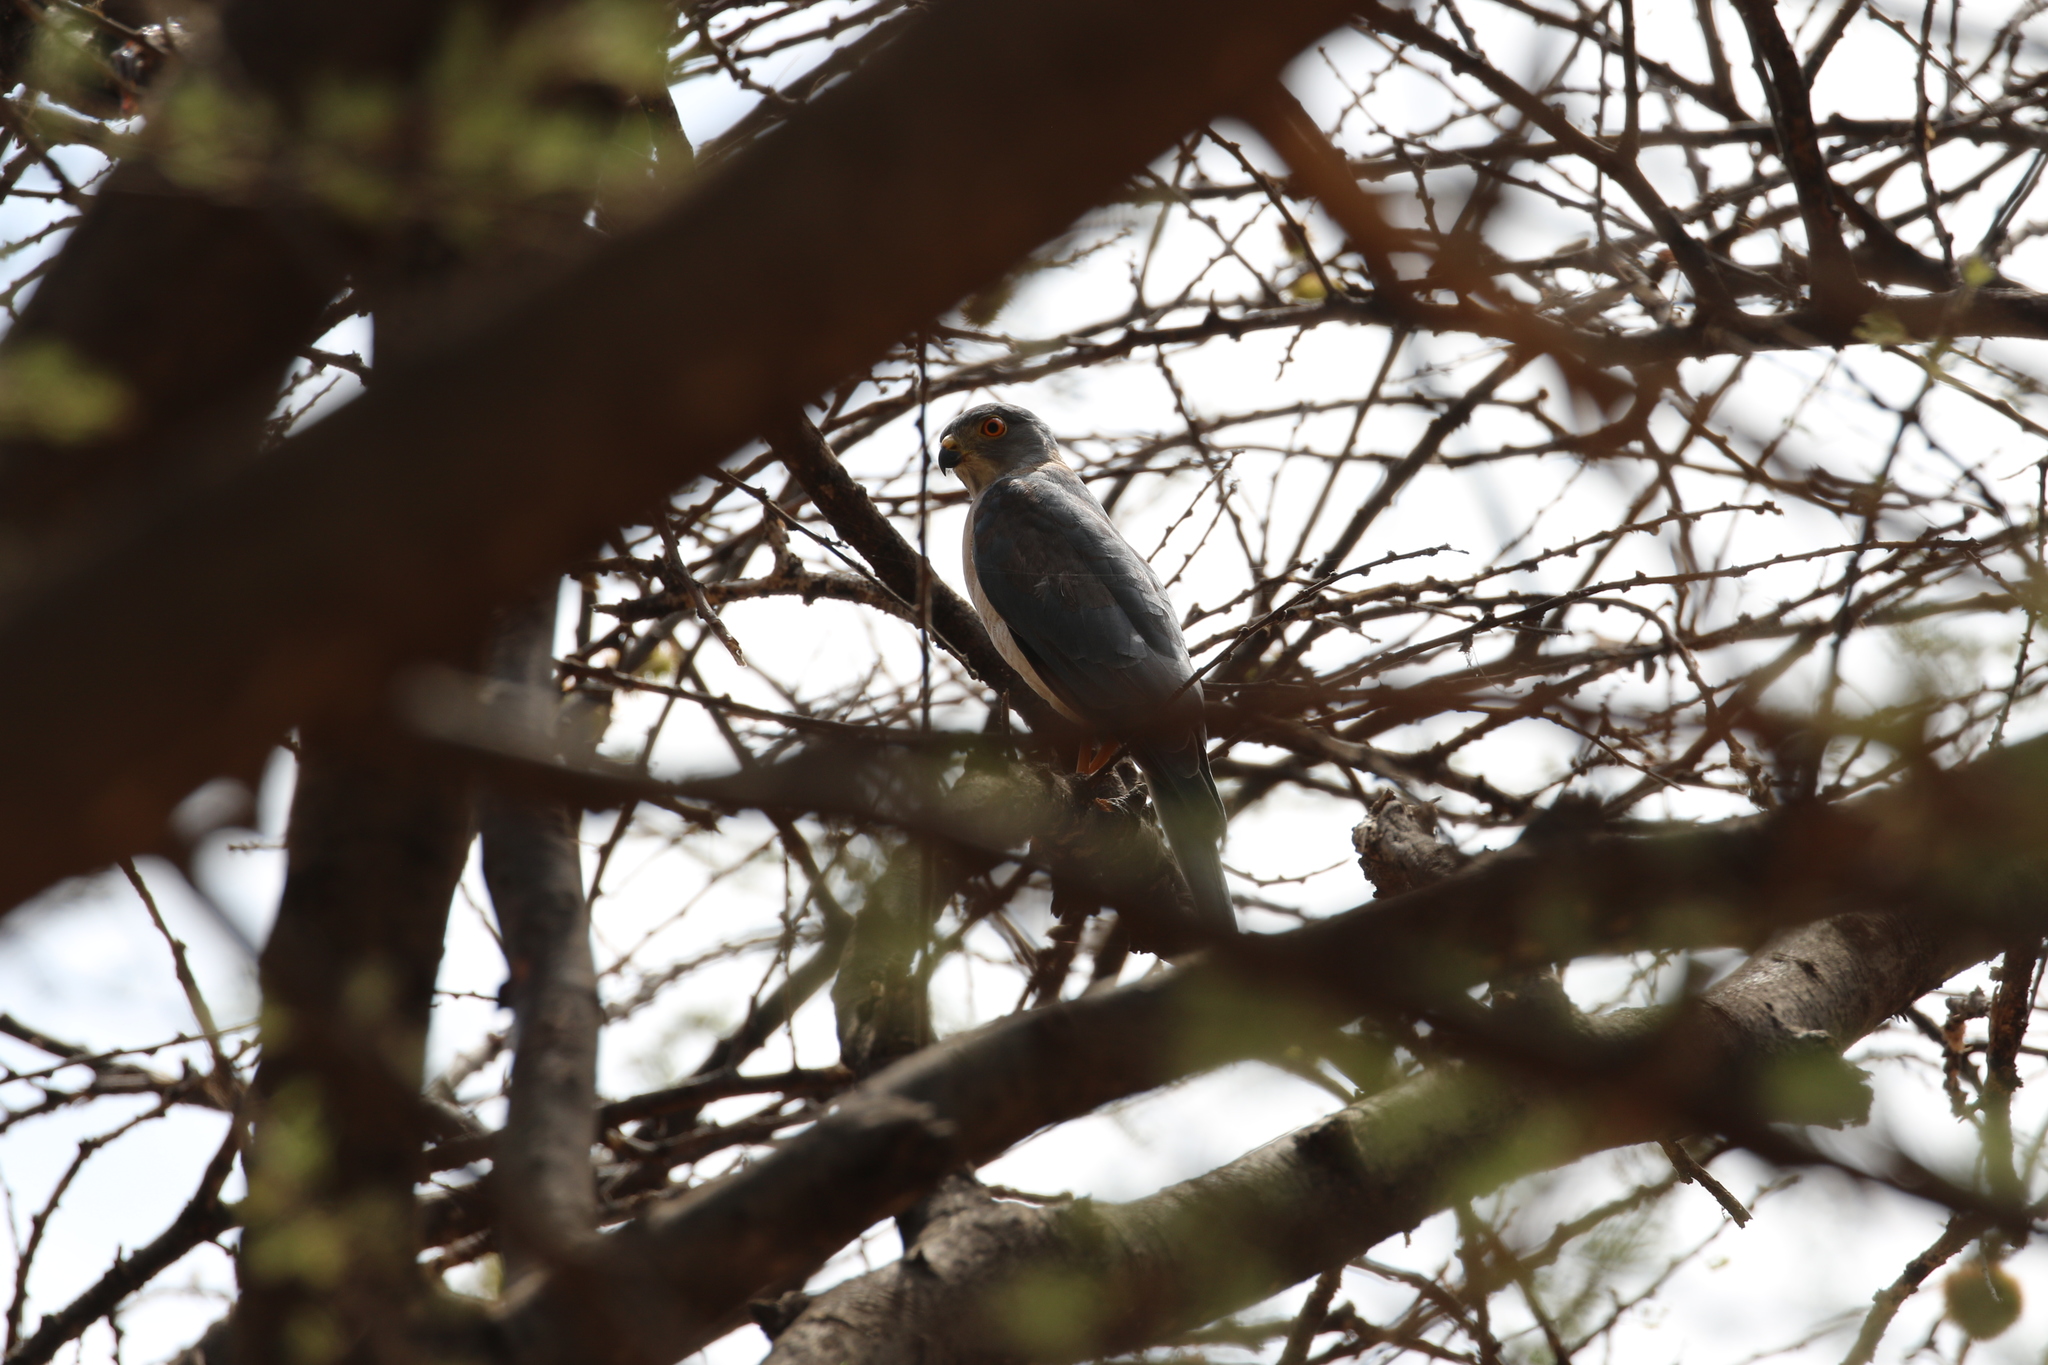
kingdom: Animalia
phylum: Chordata
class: Aves
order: Accipitriformes
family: Accipitridae
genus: Accipiter
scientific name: Accipiter badius
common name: Shikra
